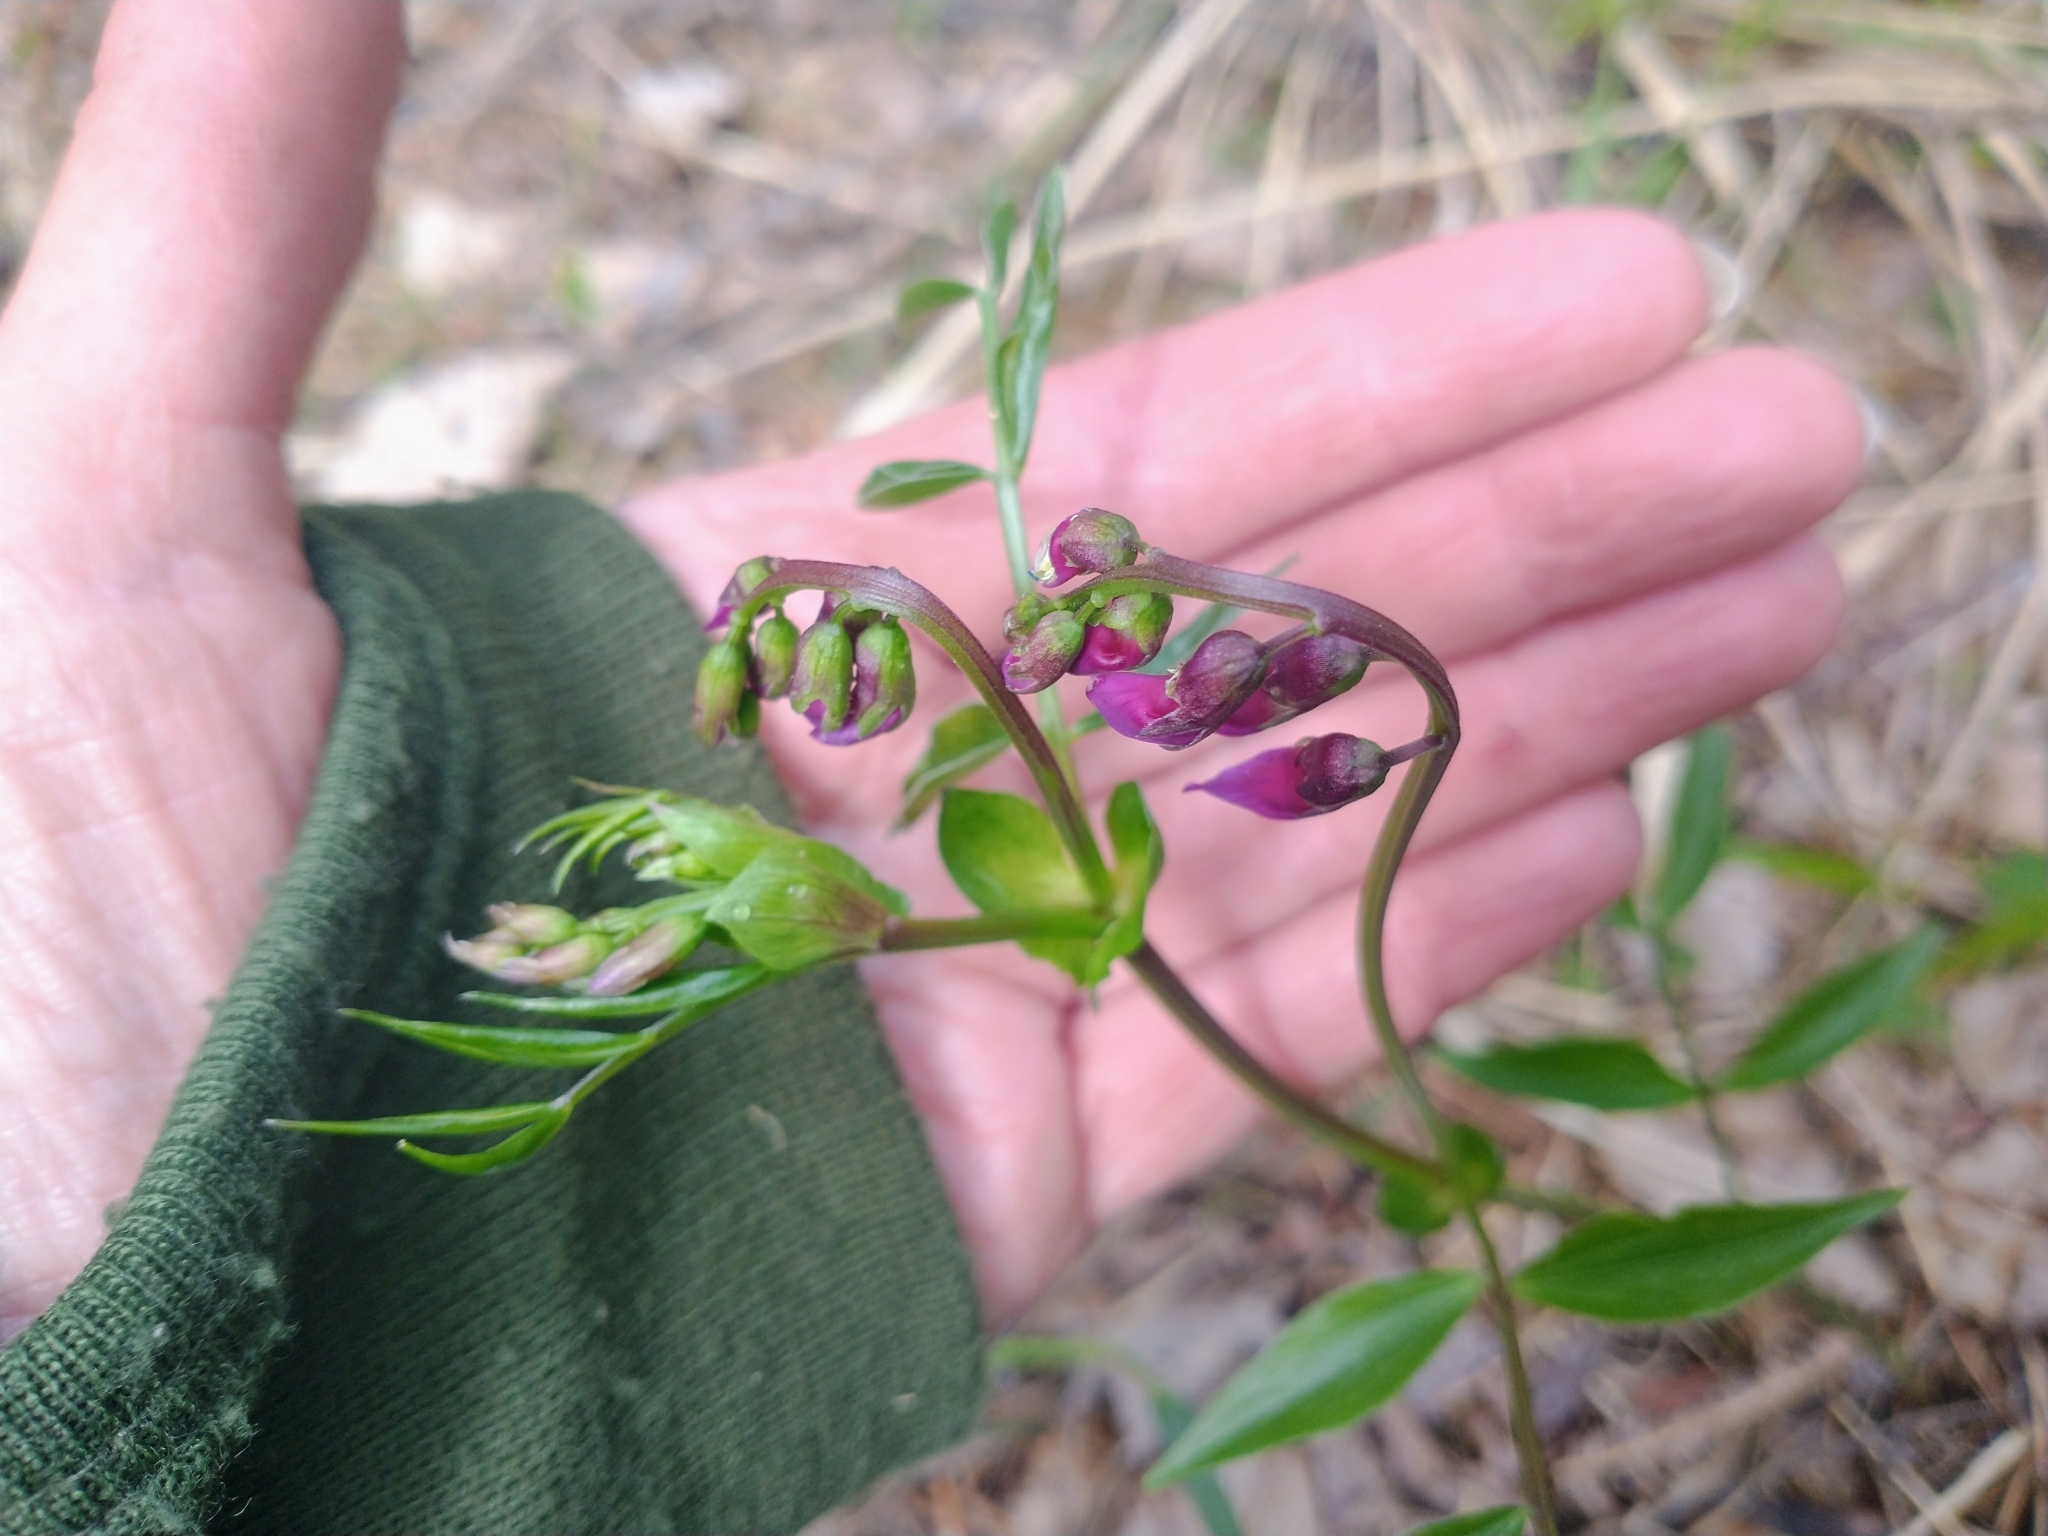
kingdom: Plantae
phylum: Tracheophyta
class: Magnoliopsida
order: Fabales
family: Fabaceae
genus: Lathyrus
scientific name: Lathyrus vernus
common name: Spring pea
